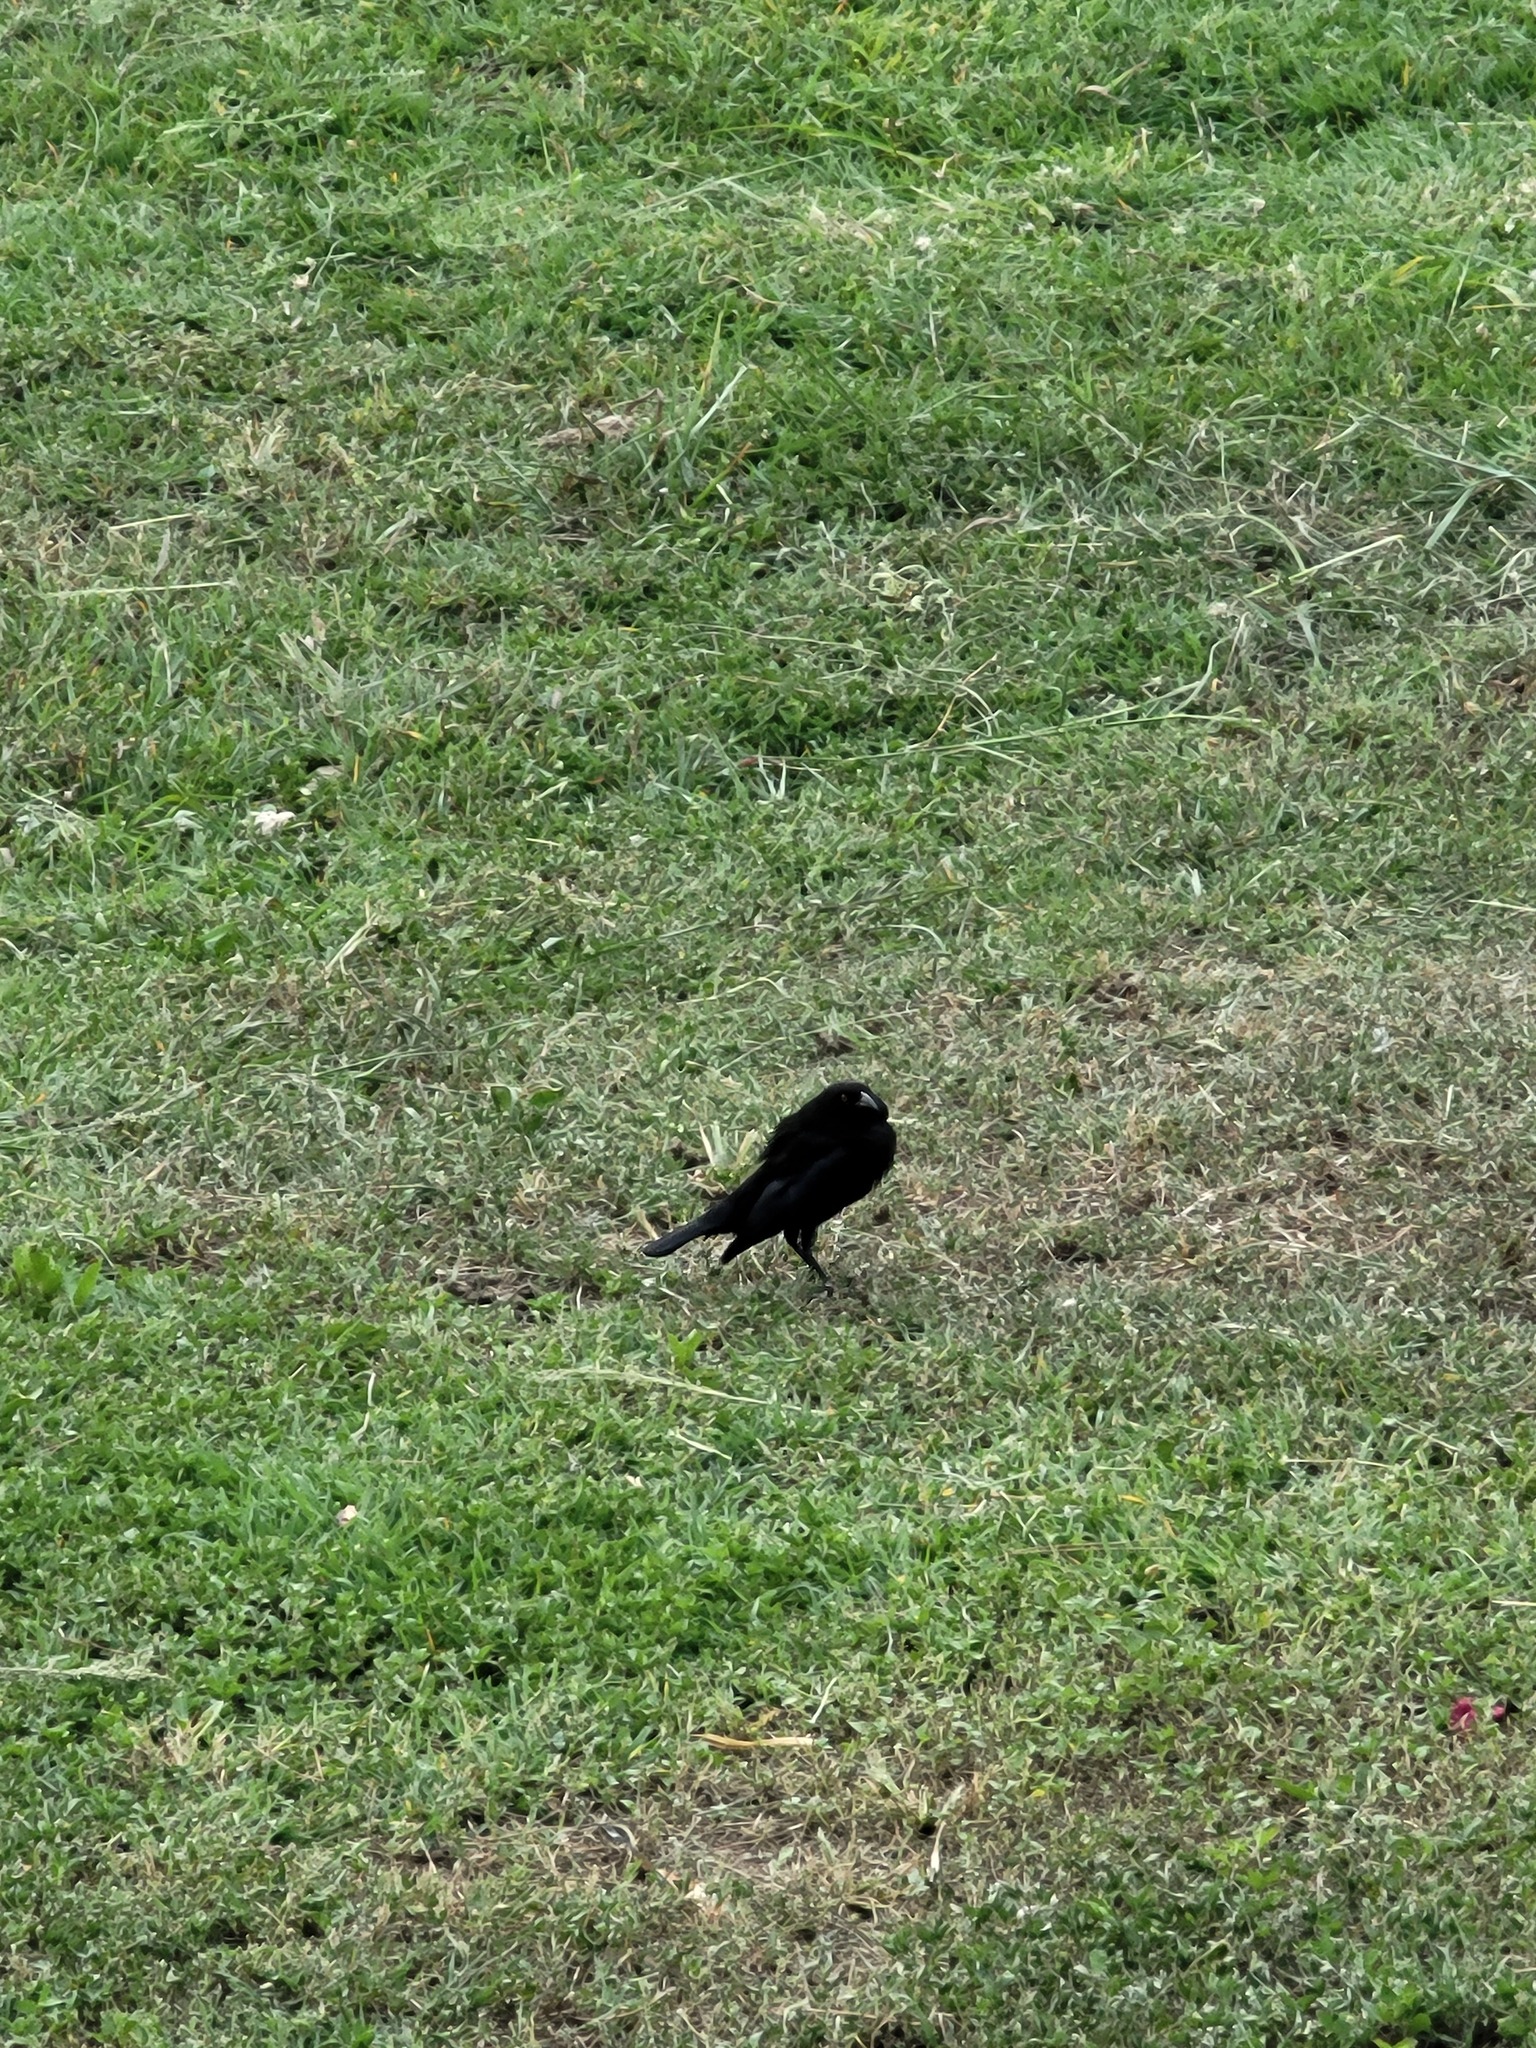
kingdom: Animalia
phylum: Chordata
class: Aves
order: Passeriformes
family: Icteridae
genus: Molothrus
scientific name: Molothrus aeneus
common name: Bronzed cowbird
